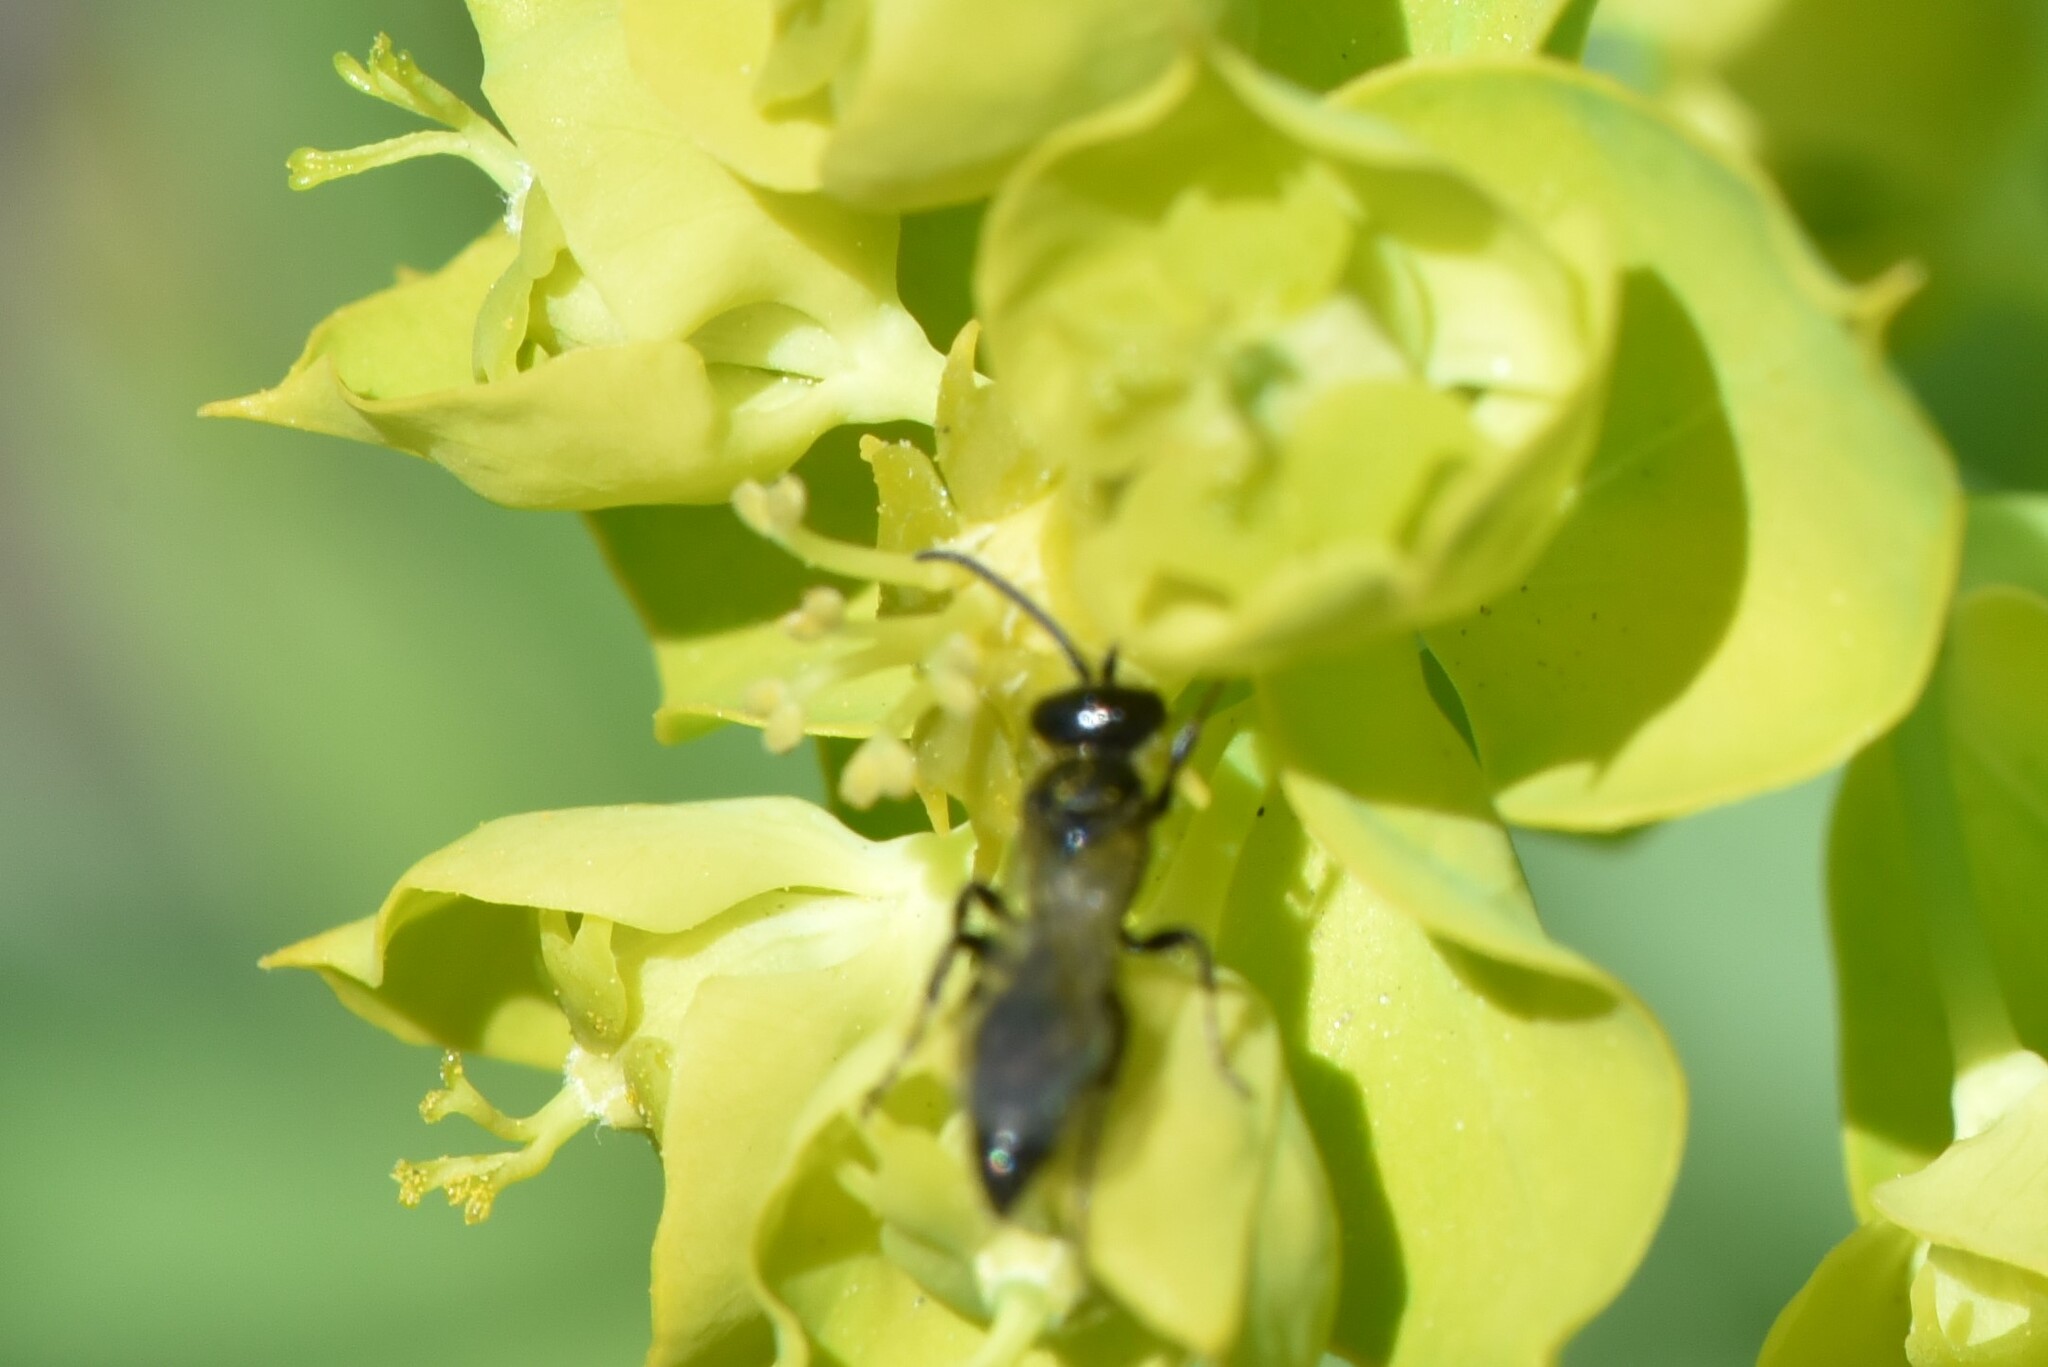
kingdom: Animalia
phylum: Arthropoda
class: Insecta
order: Hymenoptera
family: Tiphiidae
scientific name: Tiphiidae
